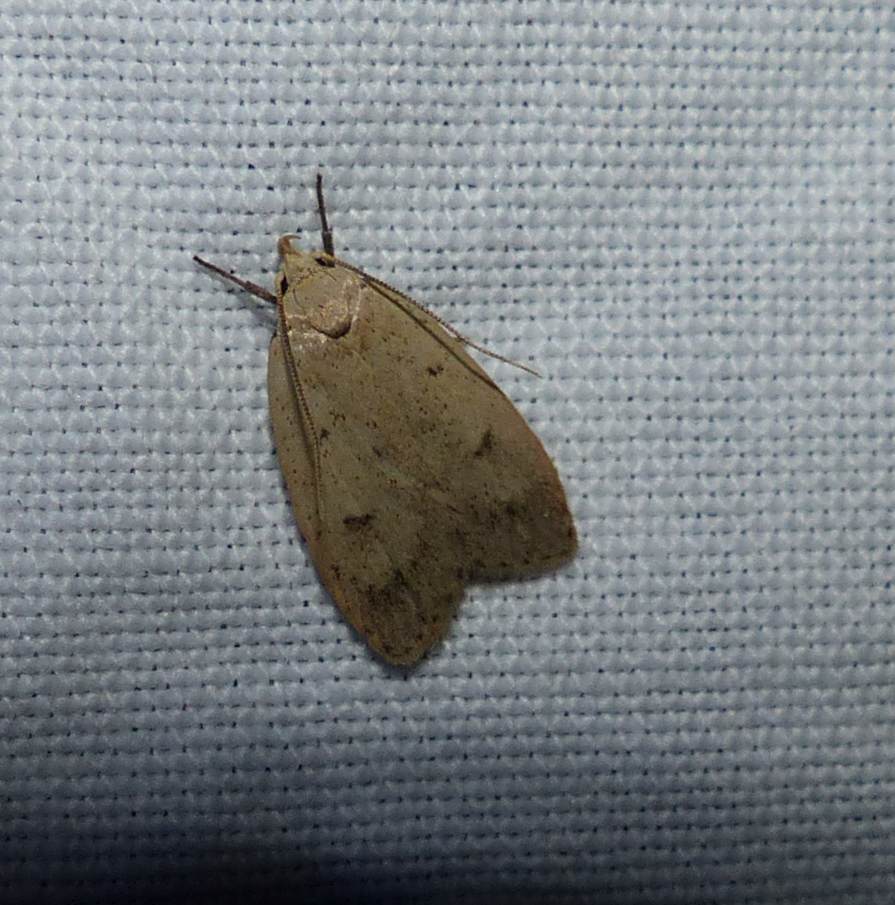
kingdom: Animalia
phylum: Arthropoda
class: Insecta
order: Lepidoptera
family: Peleopodidae
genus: Machimia
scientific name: Machimia tentoriferella
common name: Gold-striped leaftier moth
